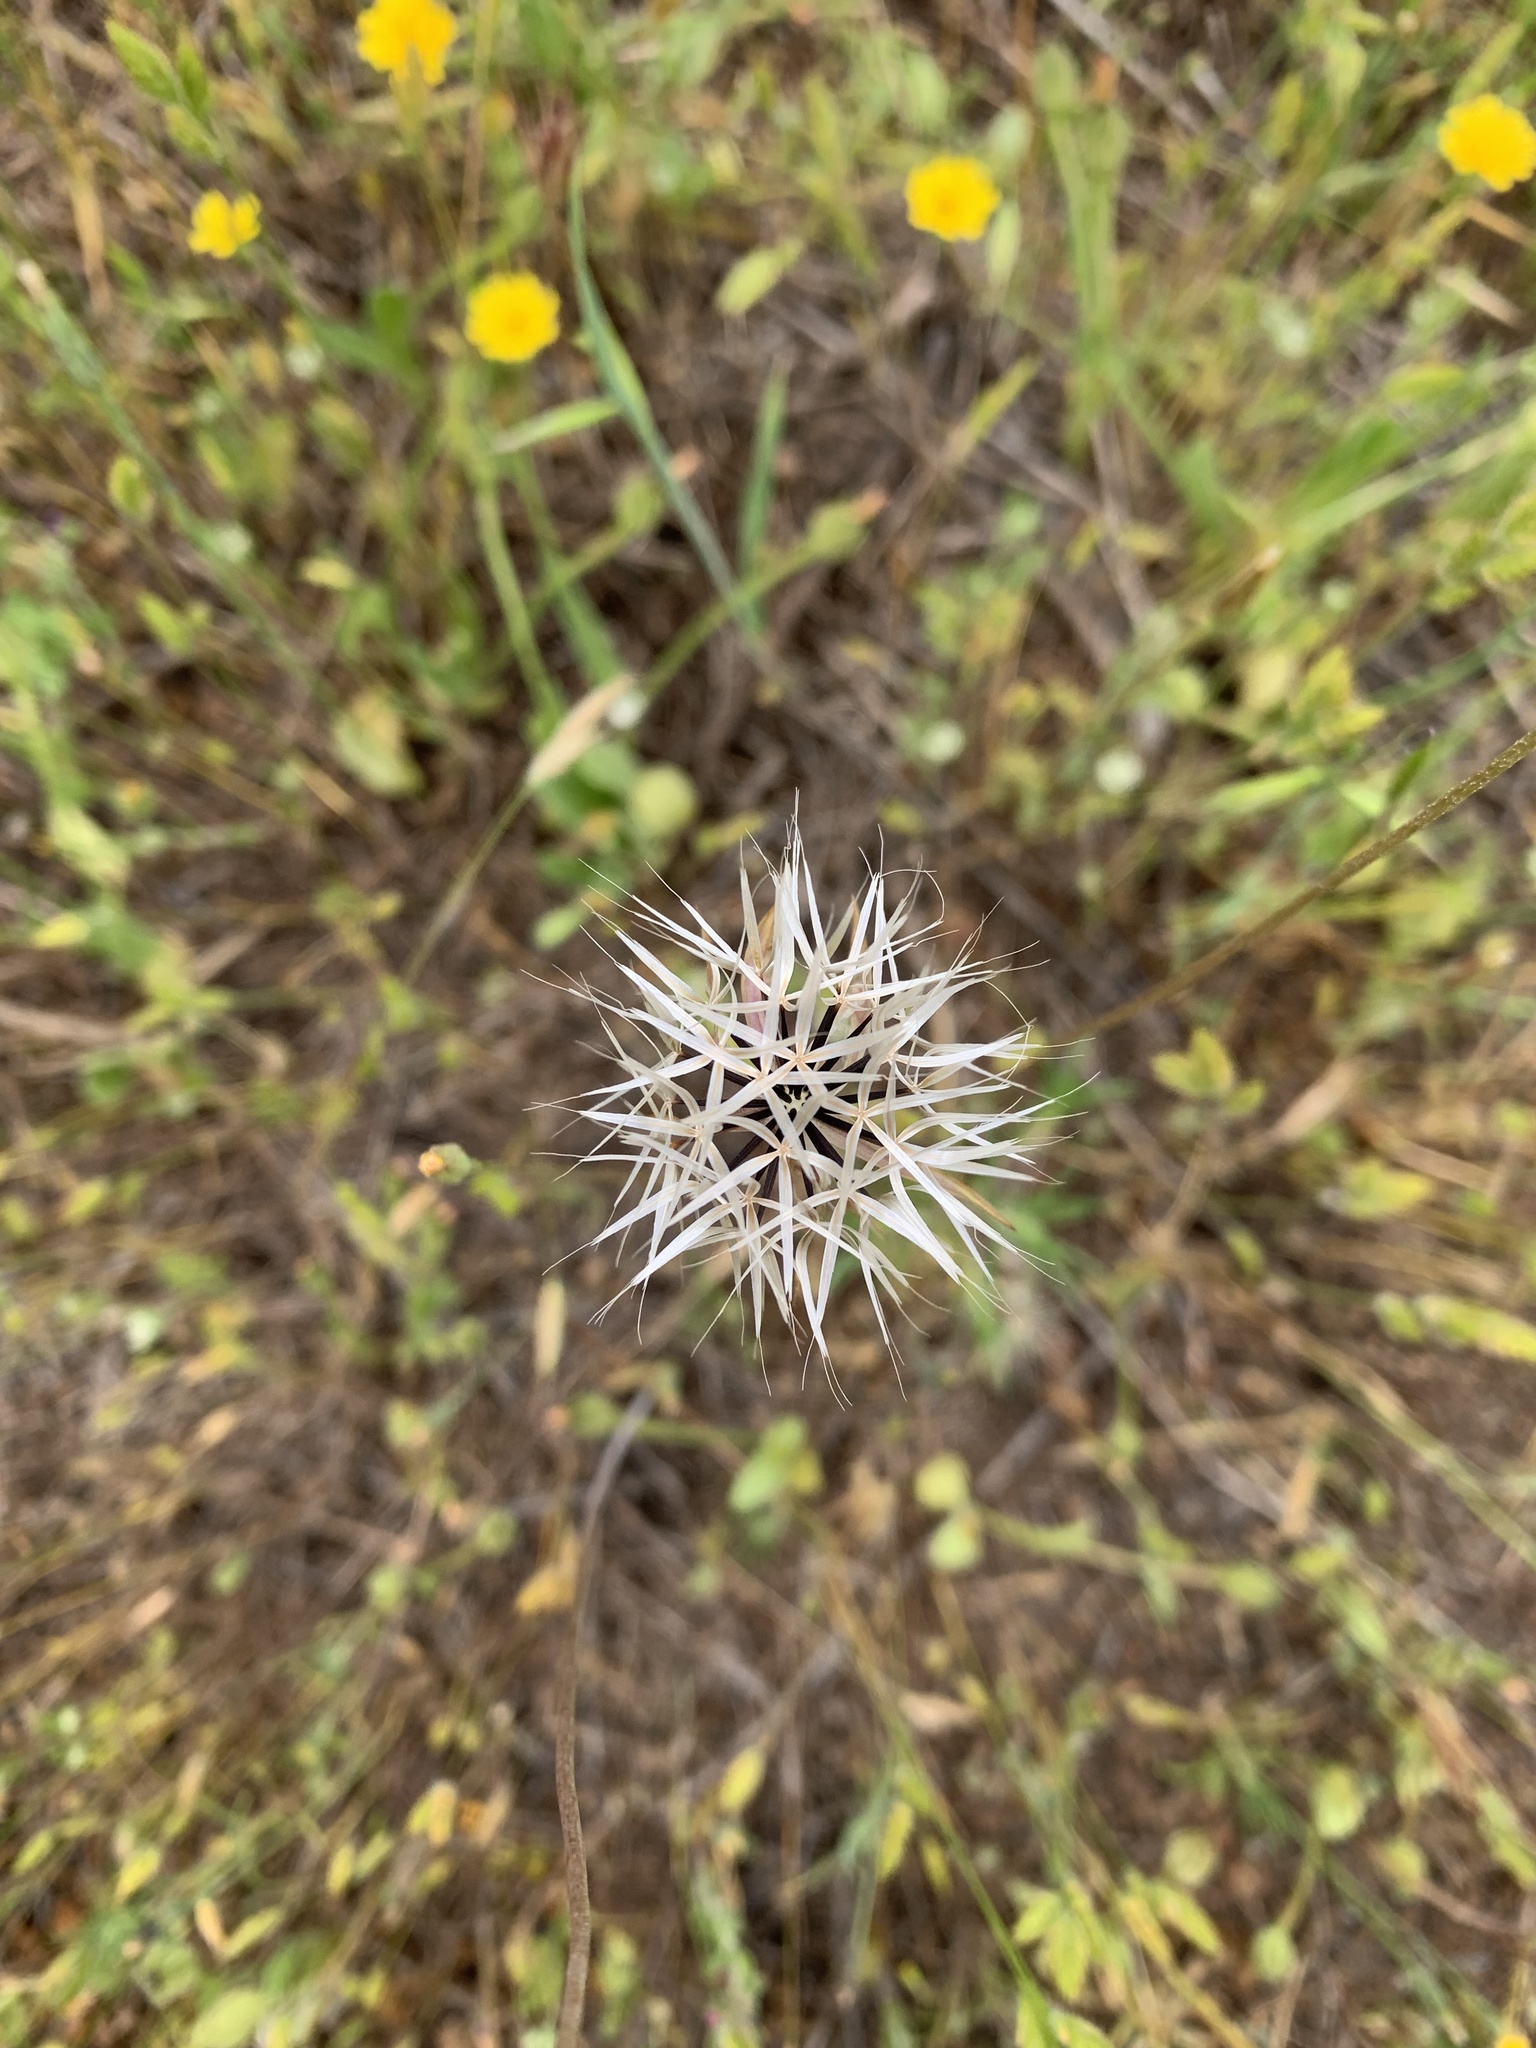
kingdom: Plantae
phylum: Tracheophyta
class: Magnoliopsida
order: Asterales
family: Asteraceae
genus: Microseris
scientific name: Microseris lindleyi
